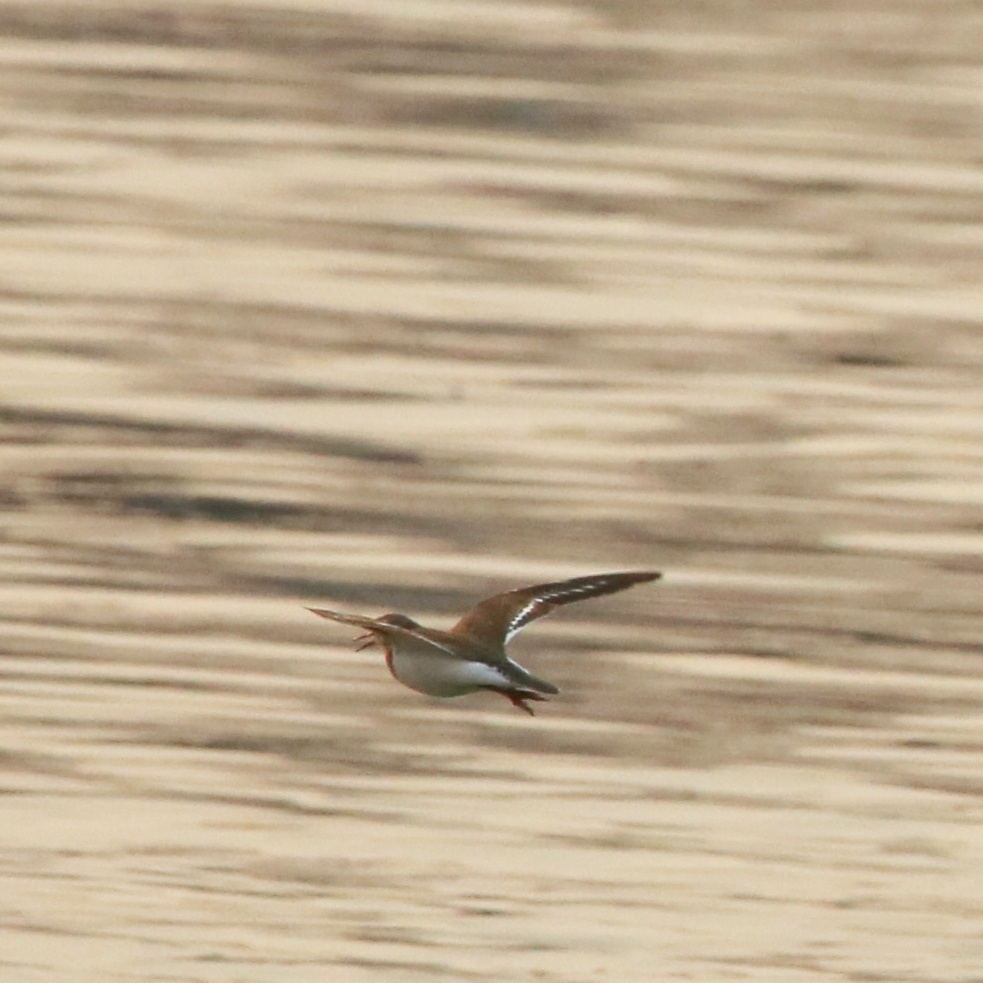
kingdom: Animalia
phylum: Chordata
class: Aves
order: Charadriiformes
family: Scolopacidae
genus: Actitis
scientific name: Actitis hypoleucos
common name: Common sandpiper
